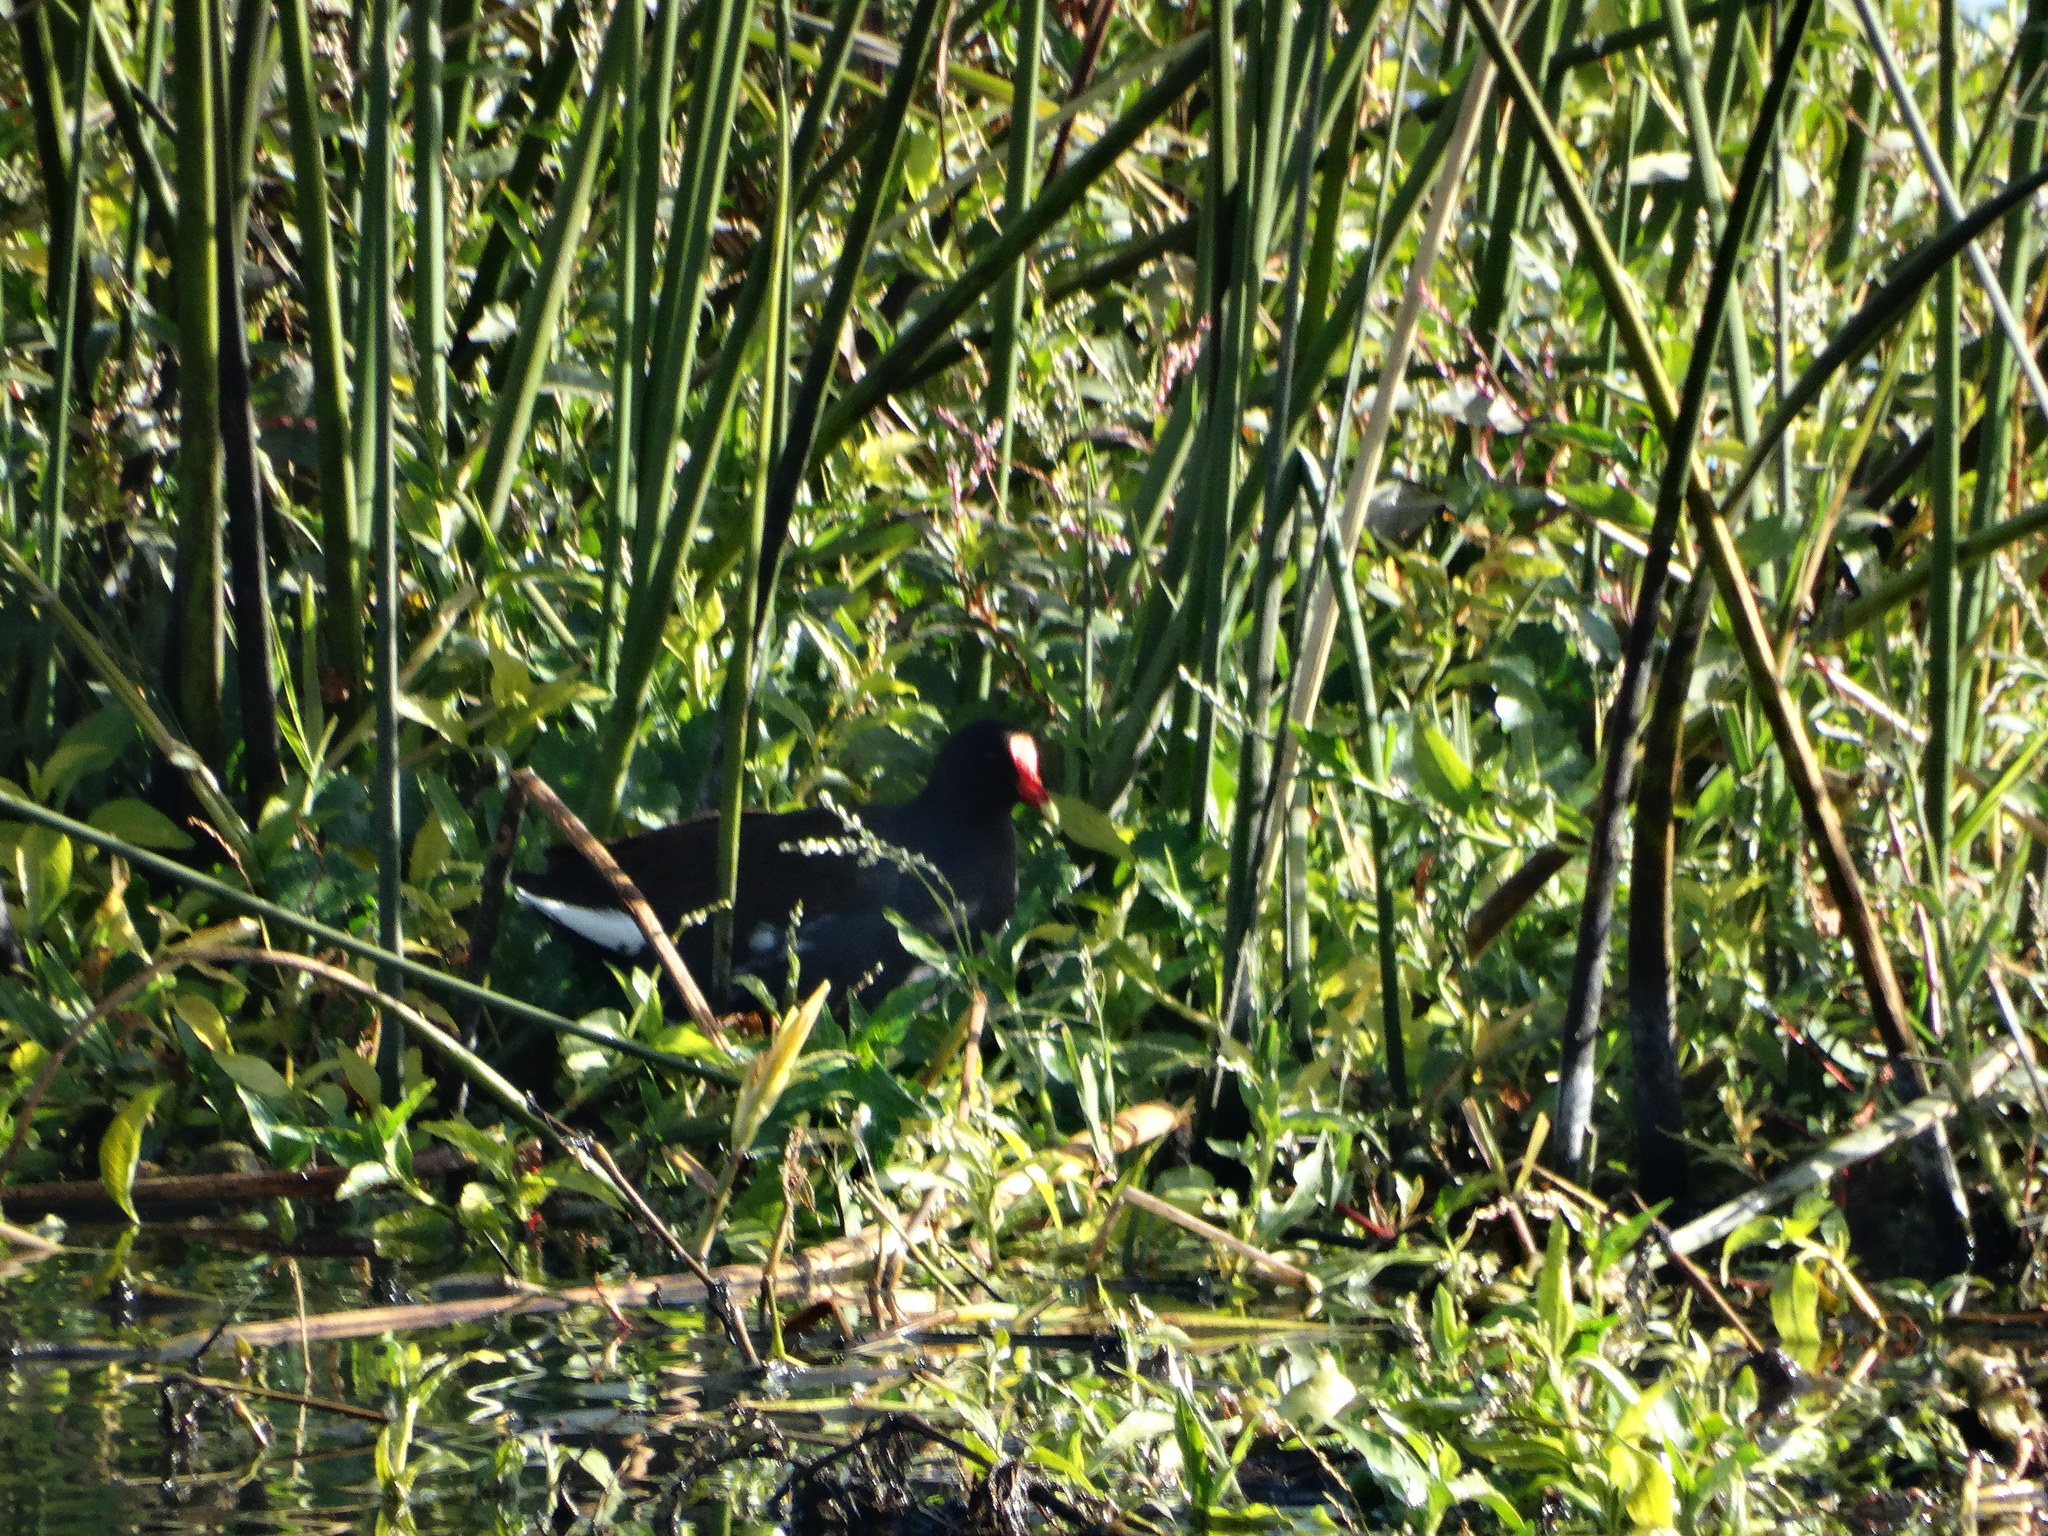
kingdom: Animalia
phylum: Chordata
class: Aves
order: Gruiformes
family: Rallidae
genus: Gallinula
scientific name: Gallinula chloropus
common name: Common moorhen
